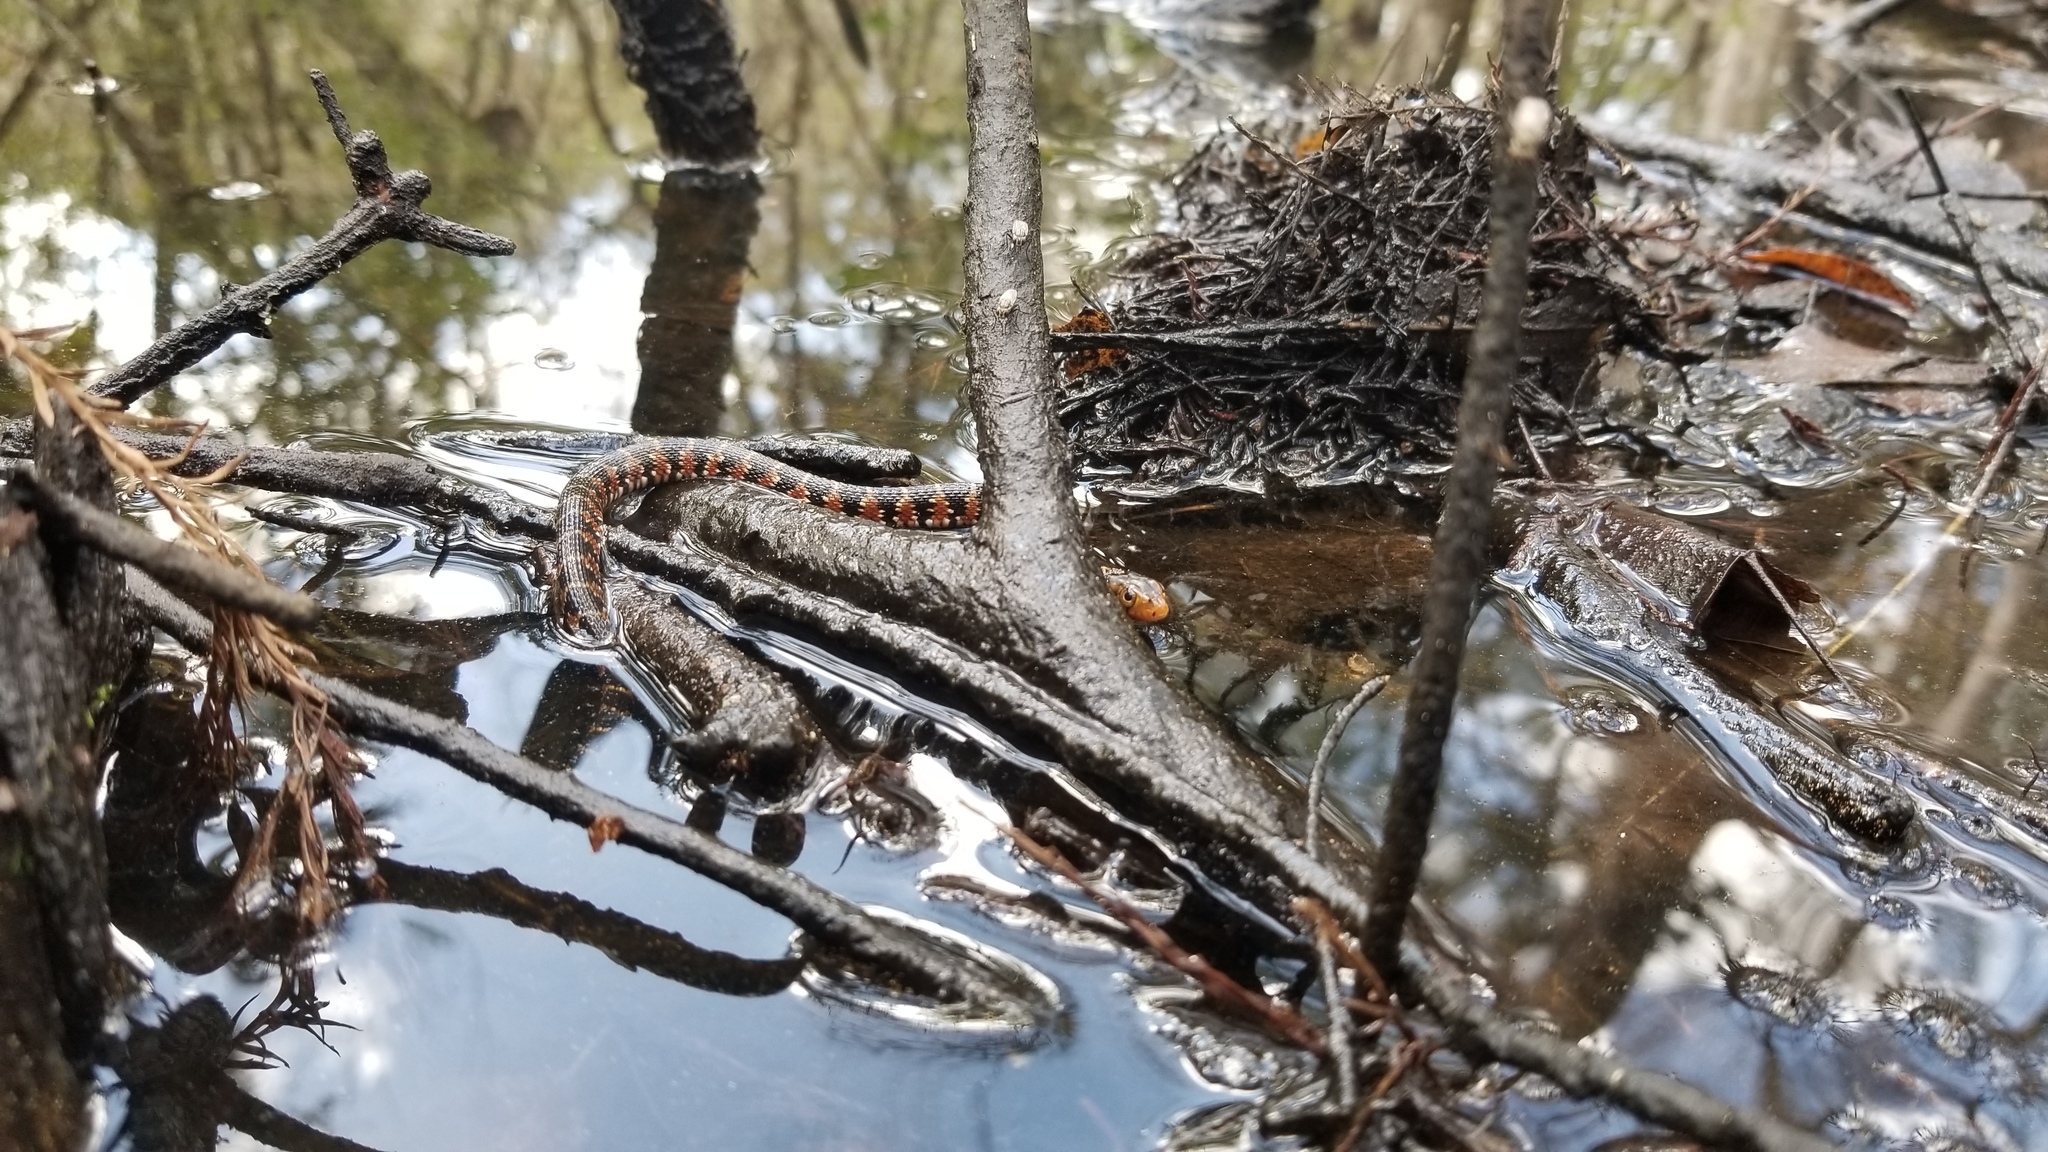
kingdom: Animalia
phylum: Chordata
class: Squamata
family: Colubridae
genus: Nerodia
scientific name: Nerodia fasciata
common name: Southern water snake
